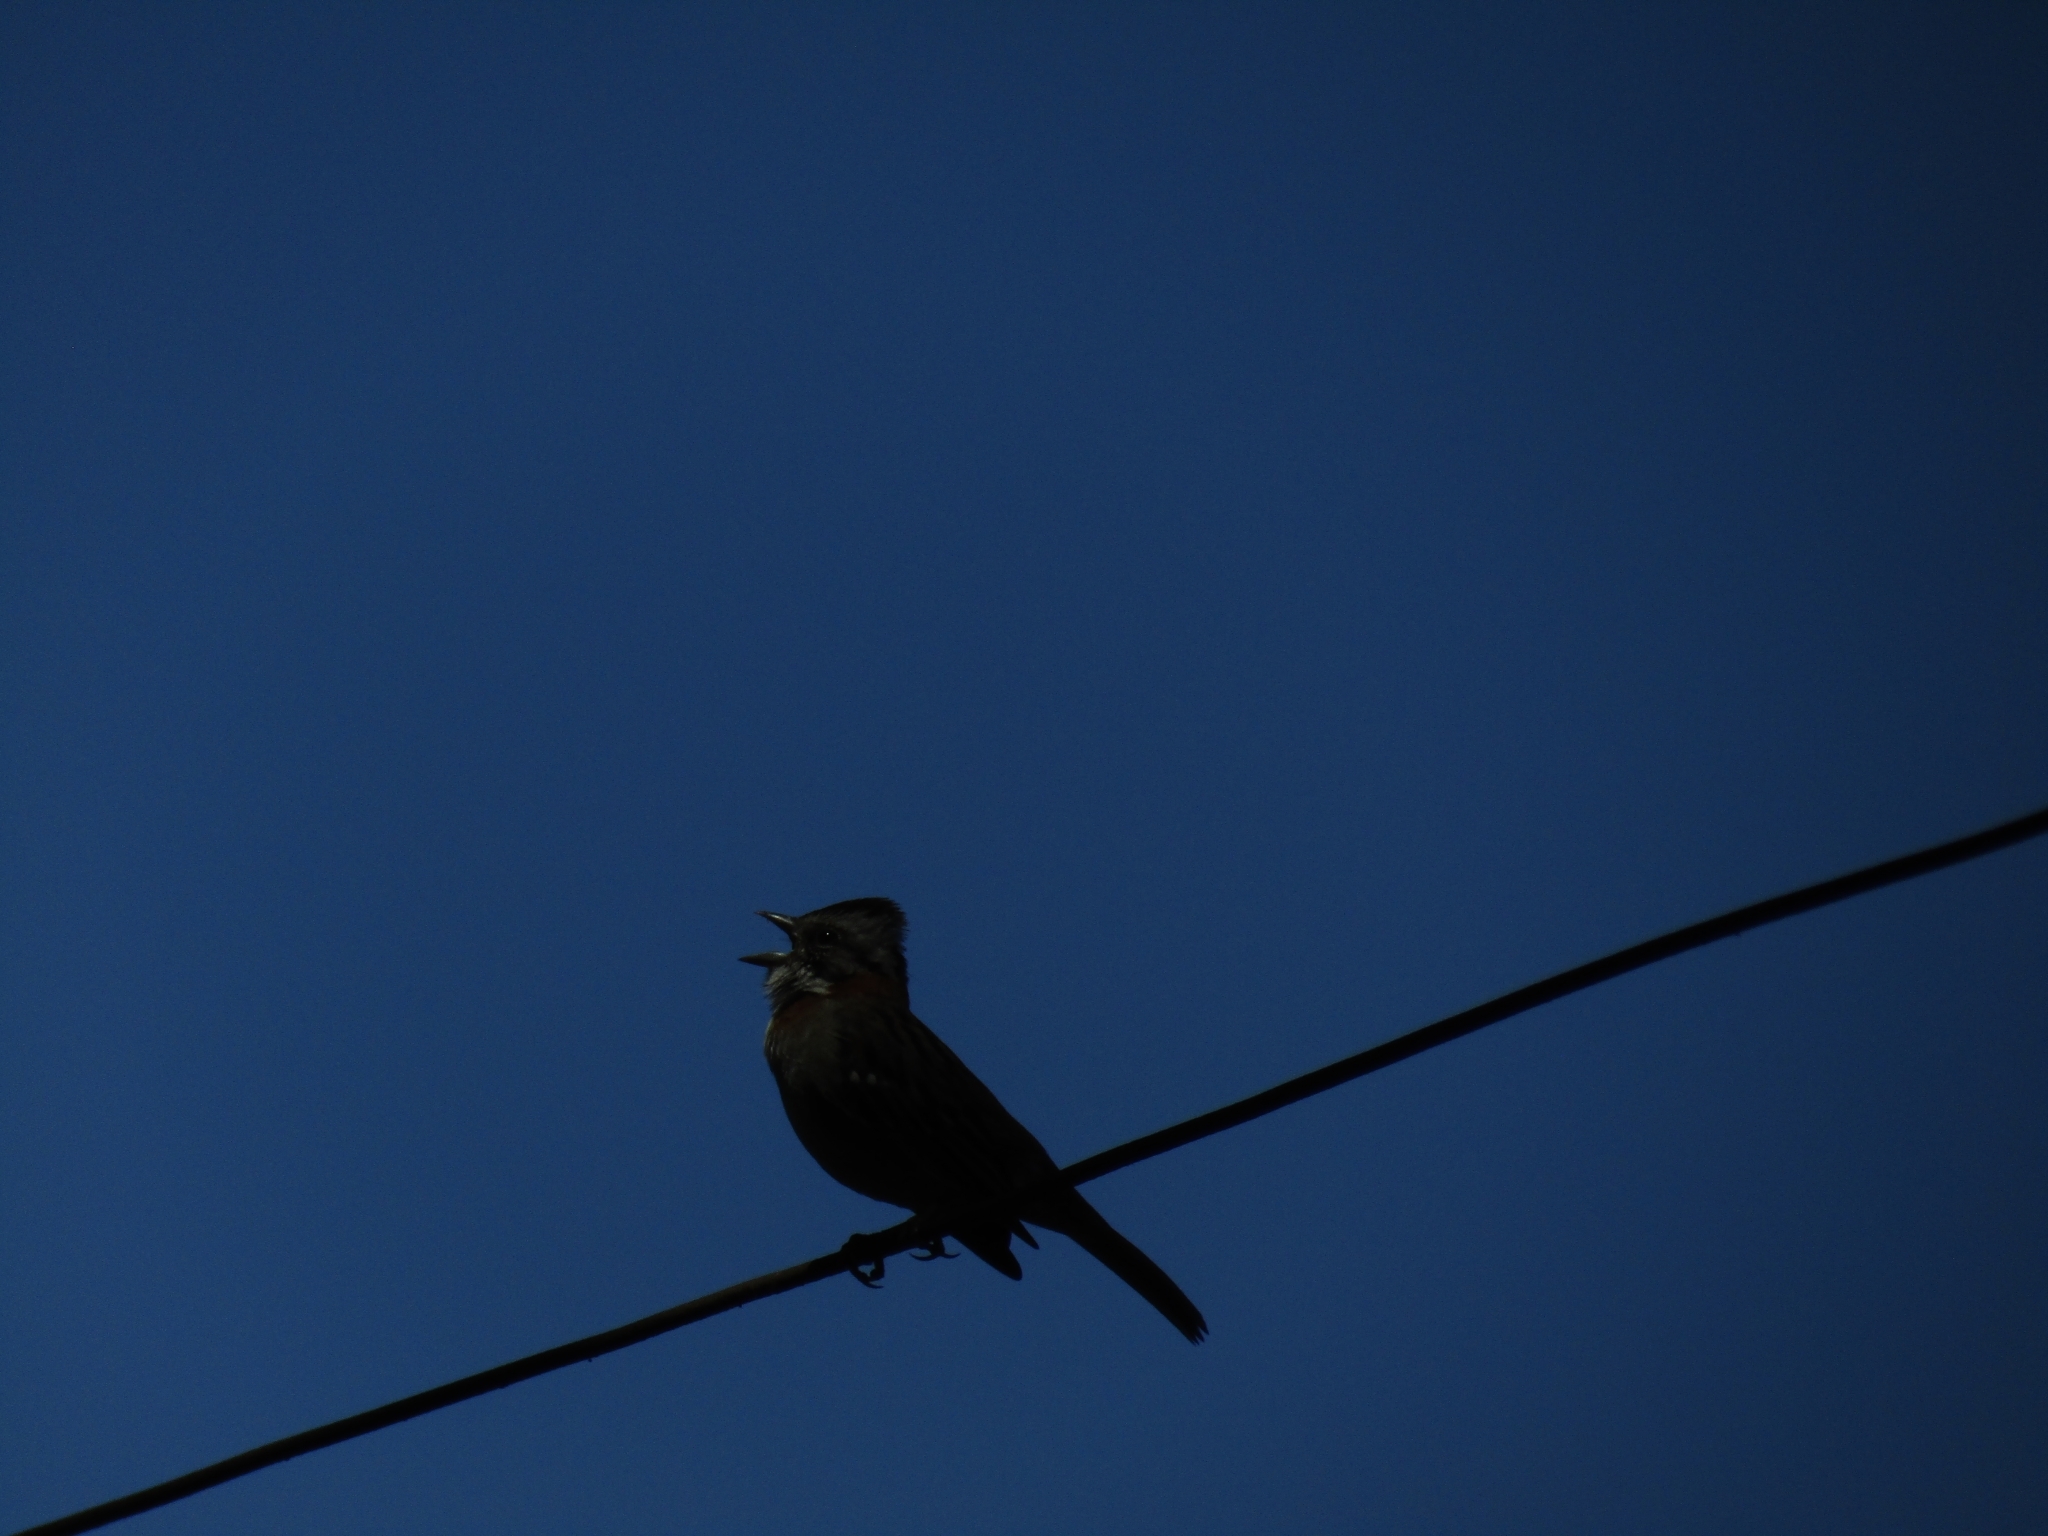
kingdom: Animalia
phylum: Chordata
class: Aves
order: Passeriformes
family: Passerellidae
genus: Zonotrichia
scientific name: Zonotrichia capensis
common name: Rufous-collared sparrow
